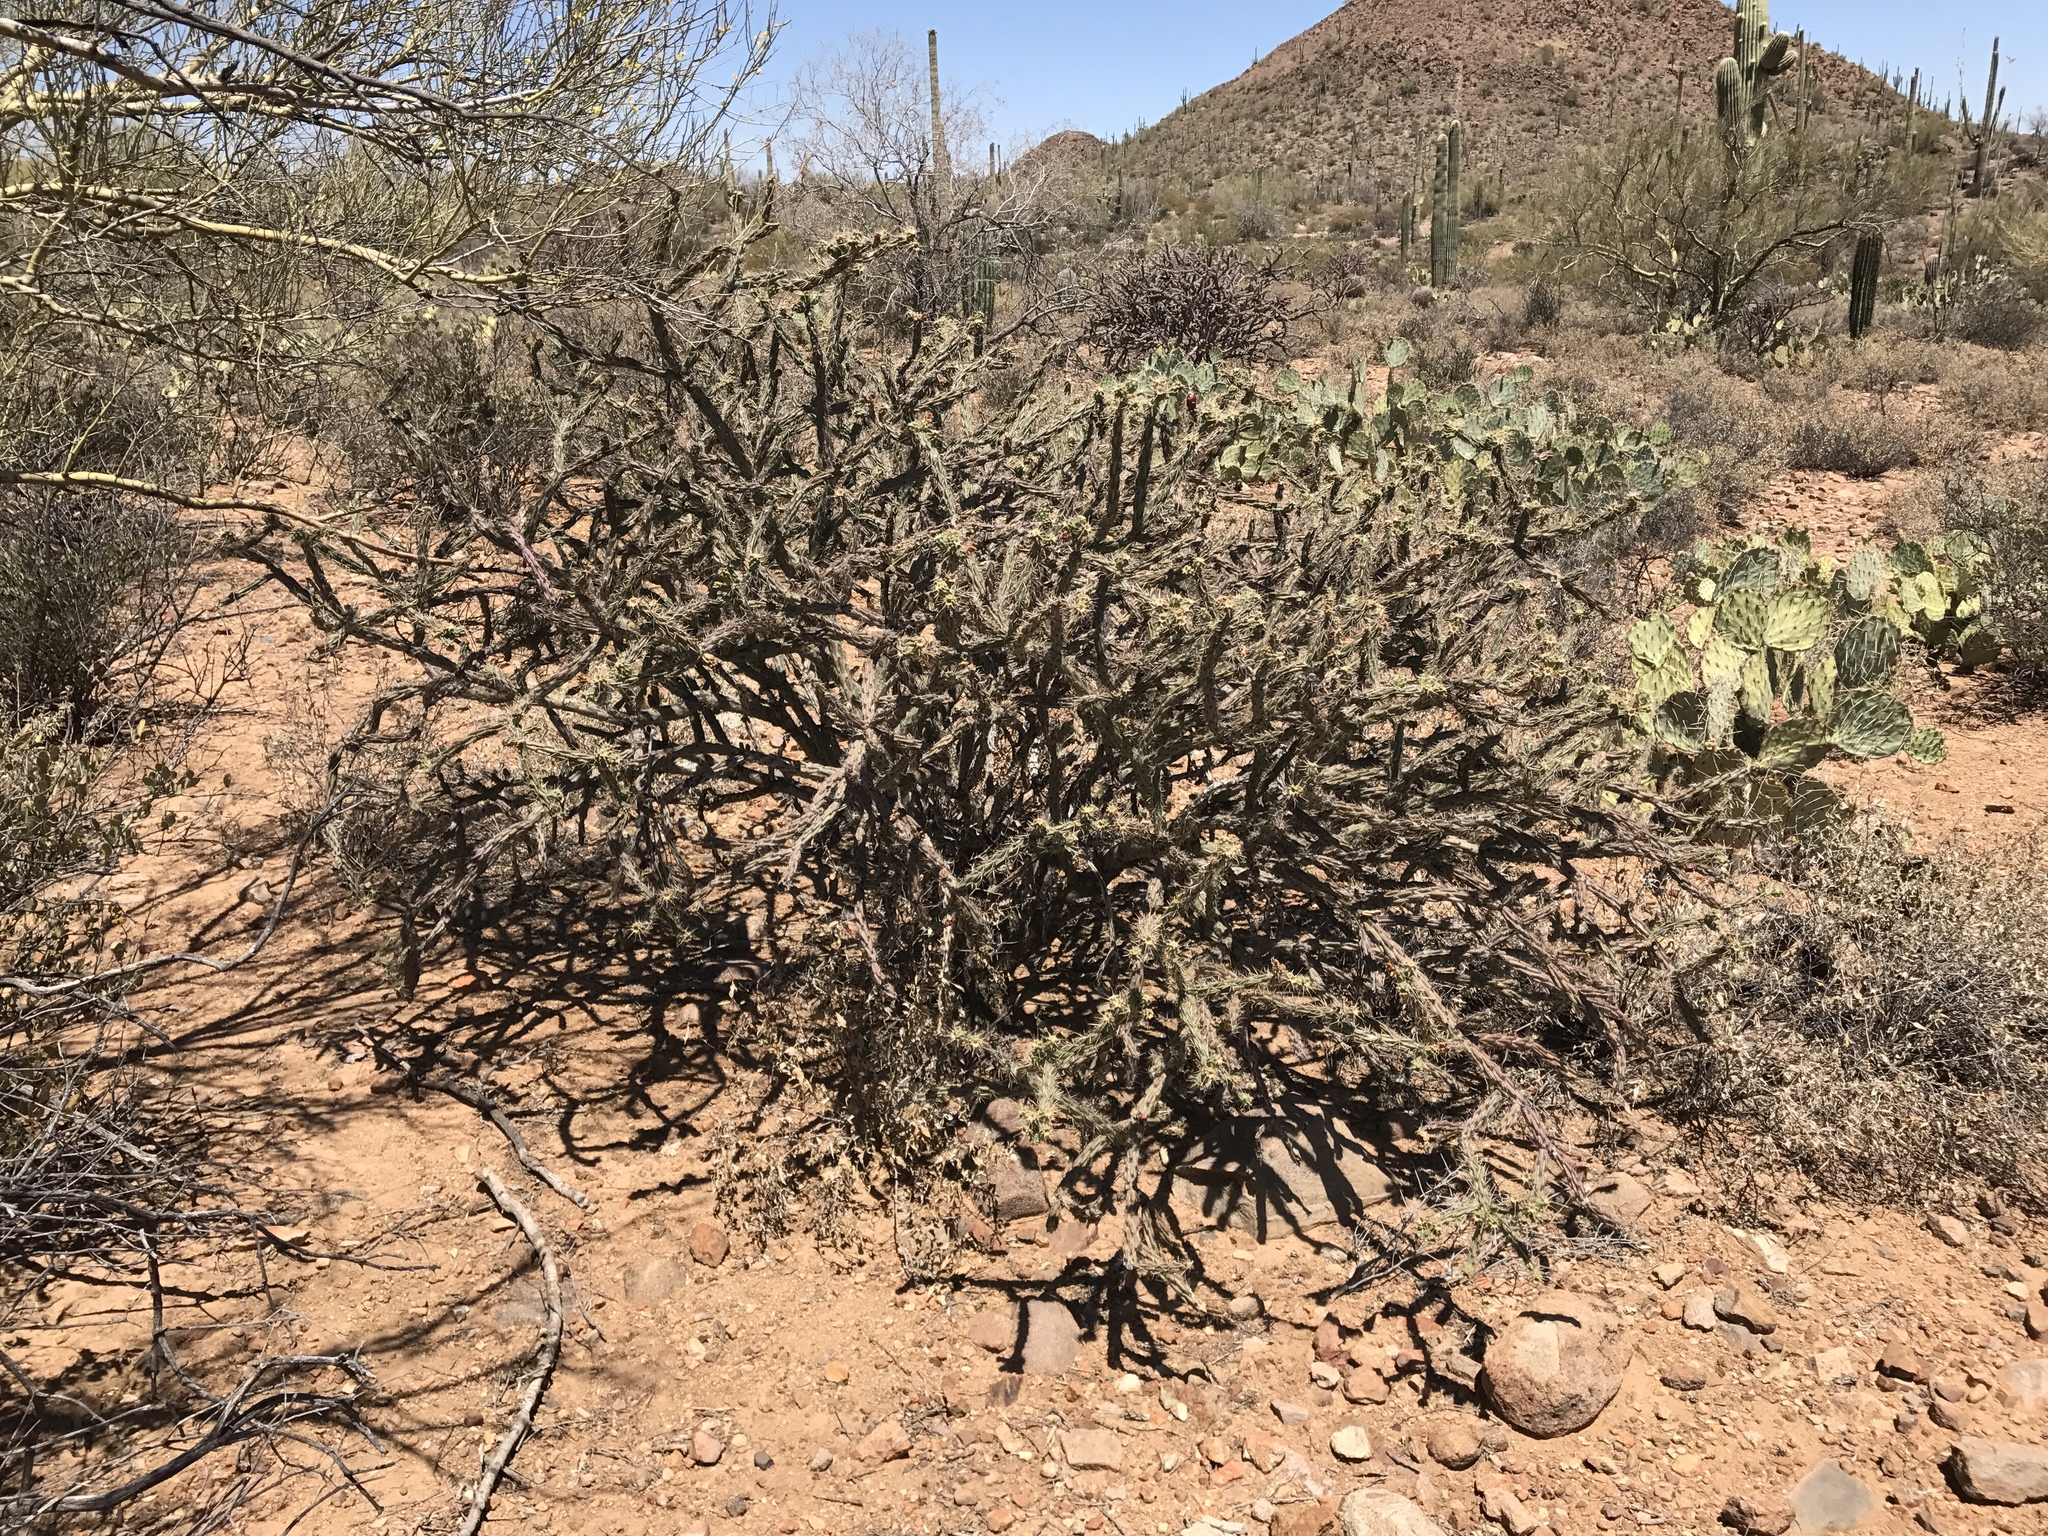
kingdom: Plantae
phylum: Tracheophyta
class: Magnoliopsida
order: Caryophyllales
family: Cactaceae
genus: Cylindropuntia
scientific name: Cylindropuntia acanthocarpa
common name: Buckhorn cholla
